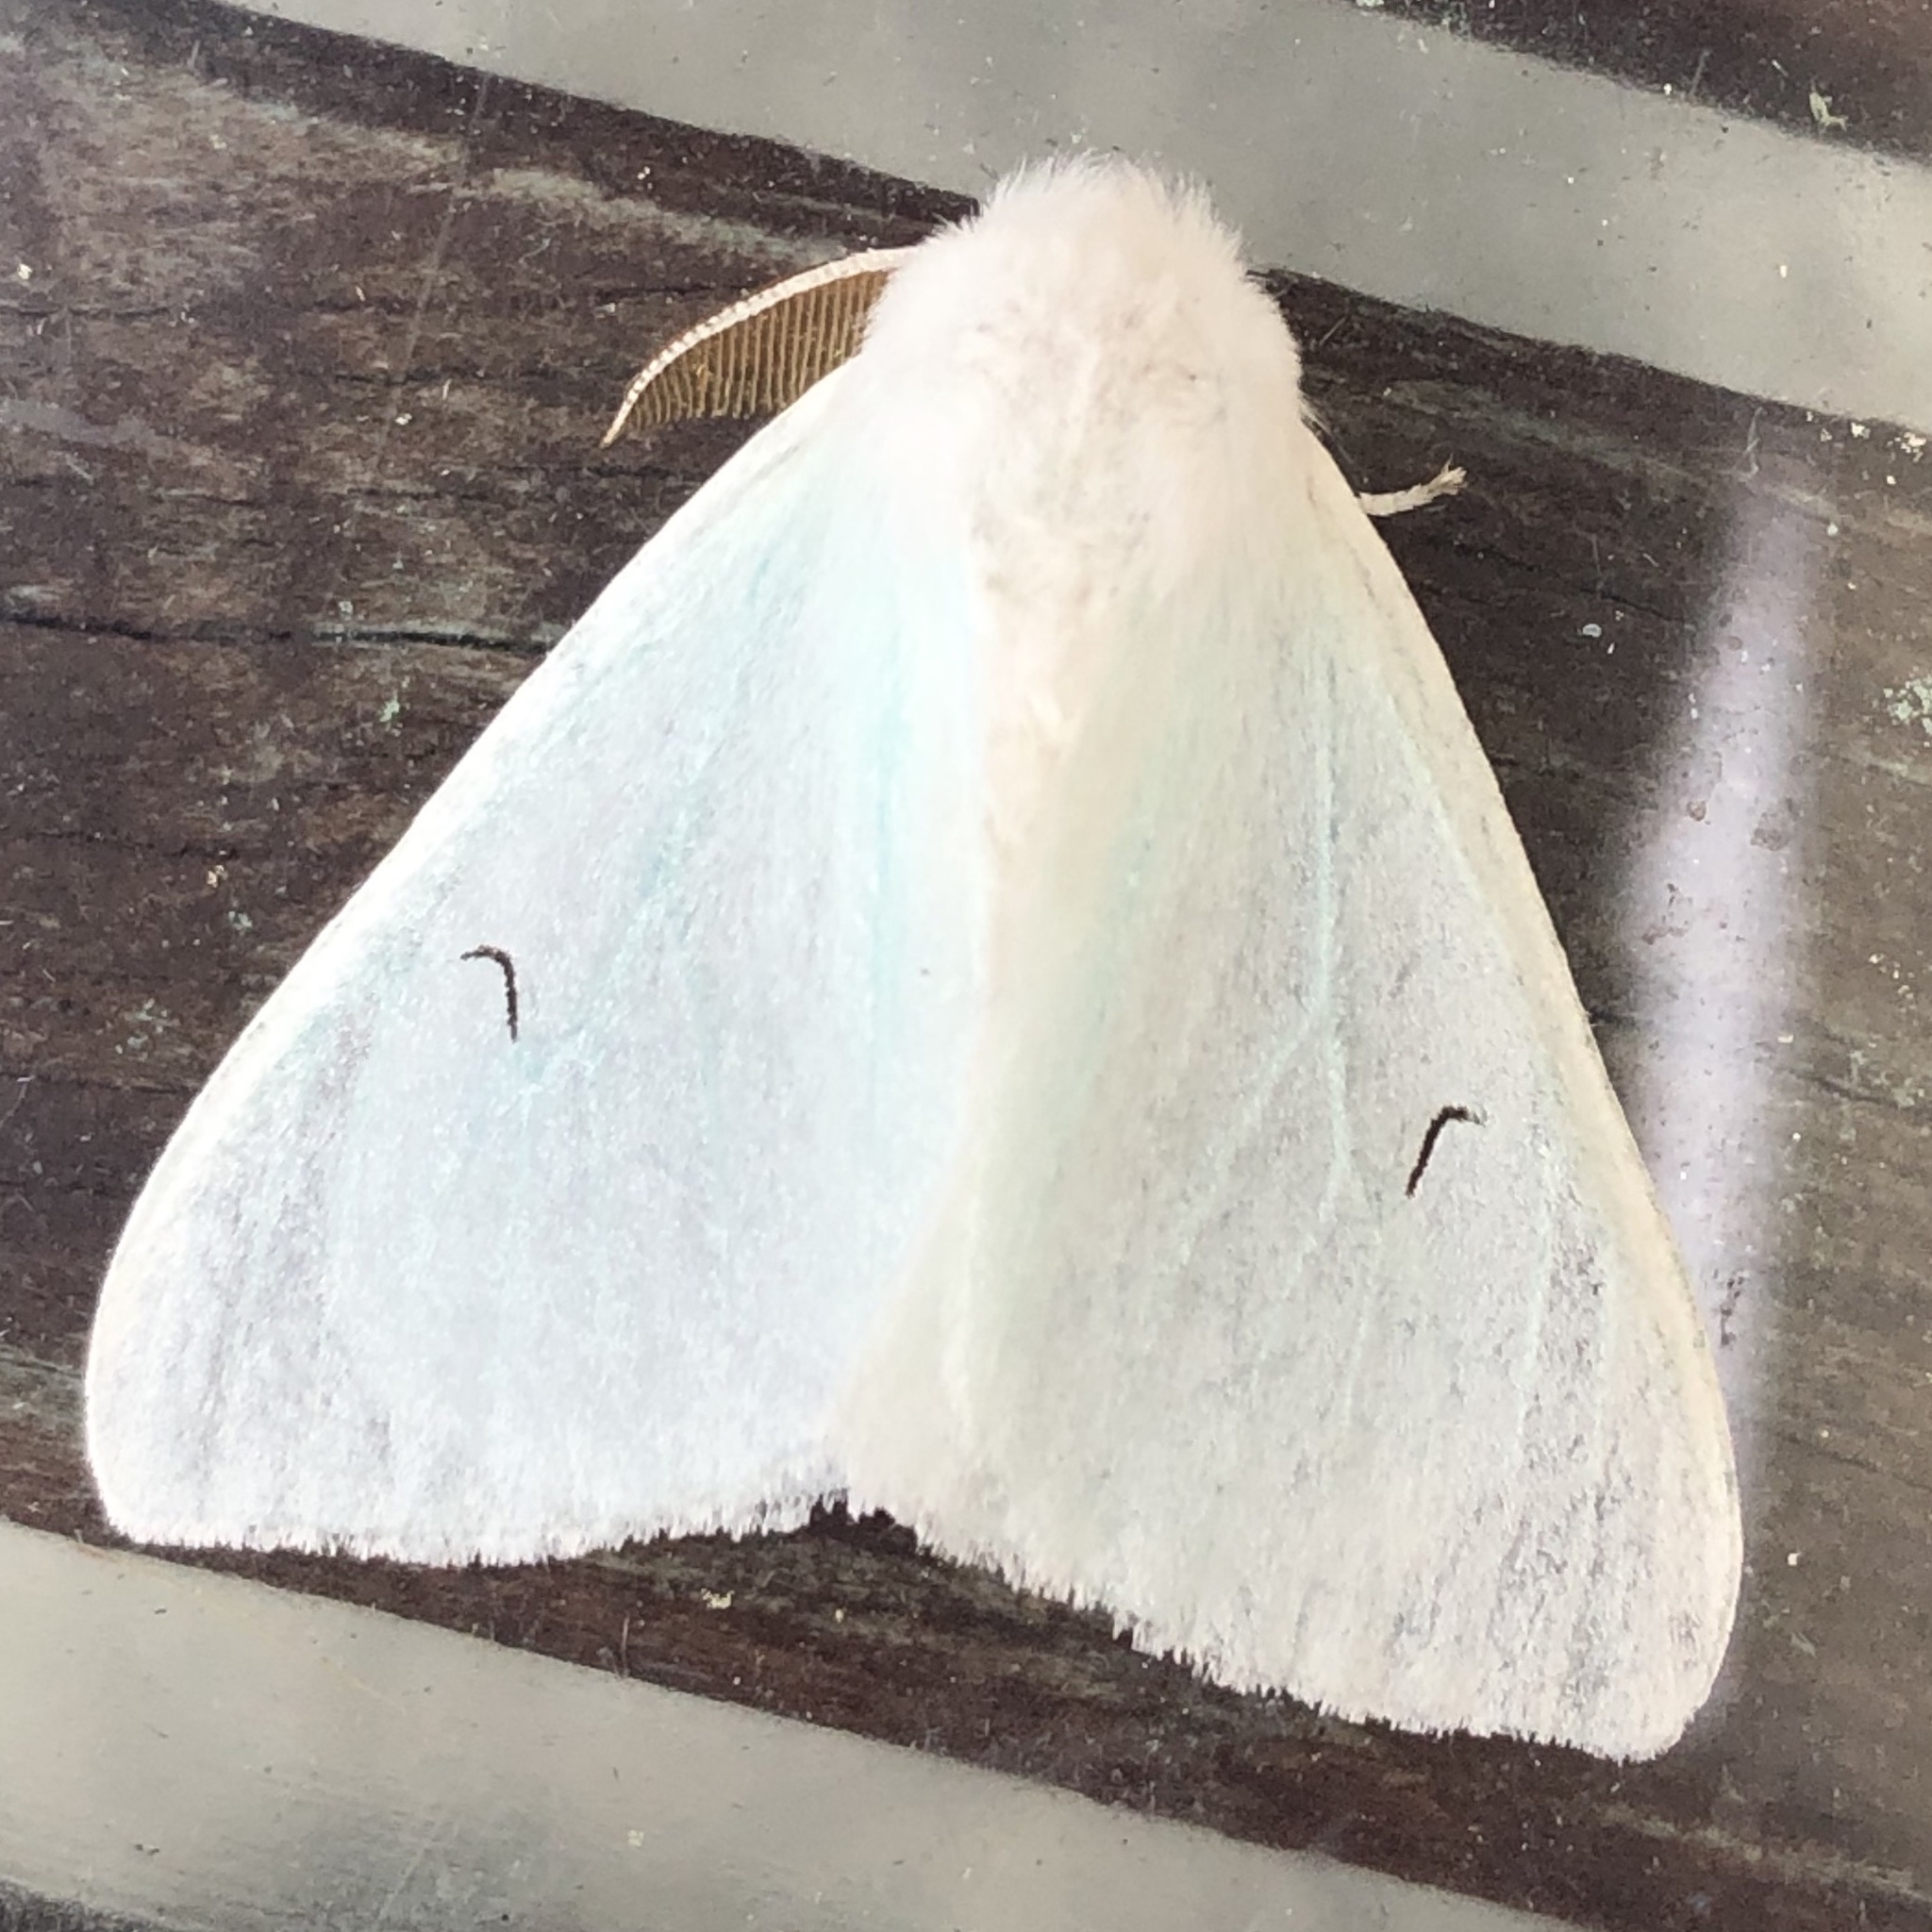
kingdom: Animalia
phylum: Arthropoda
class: Insecta
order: Lepidoptera
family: Erebidae
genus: Arctornis
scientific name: Arctornis l-nigrum
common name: Black v moth
